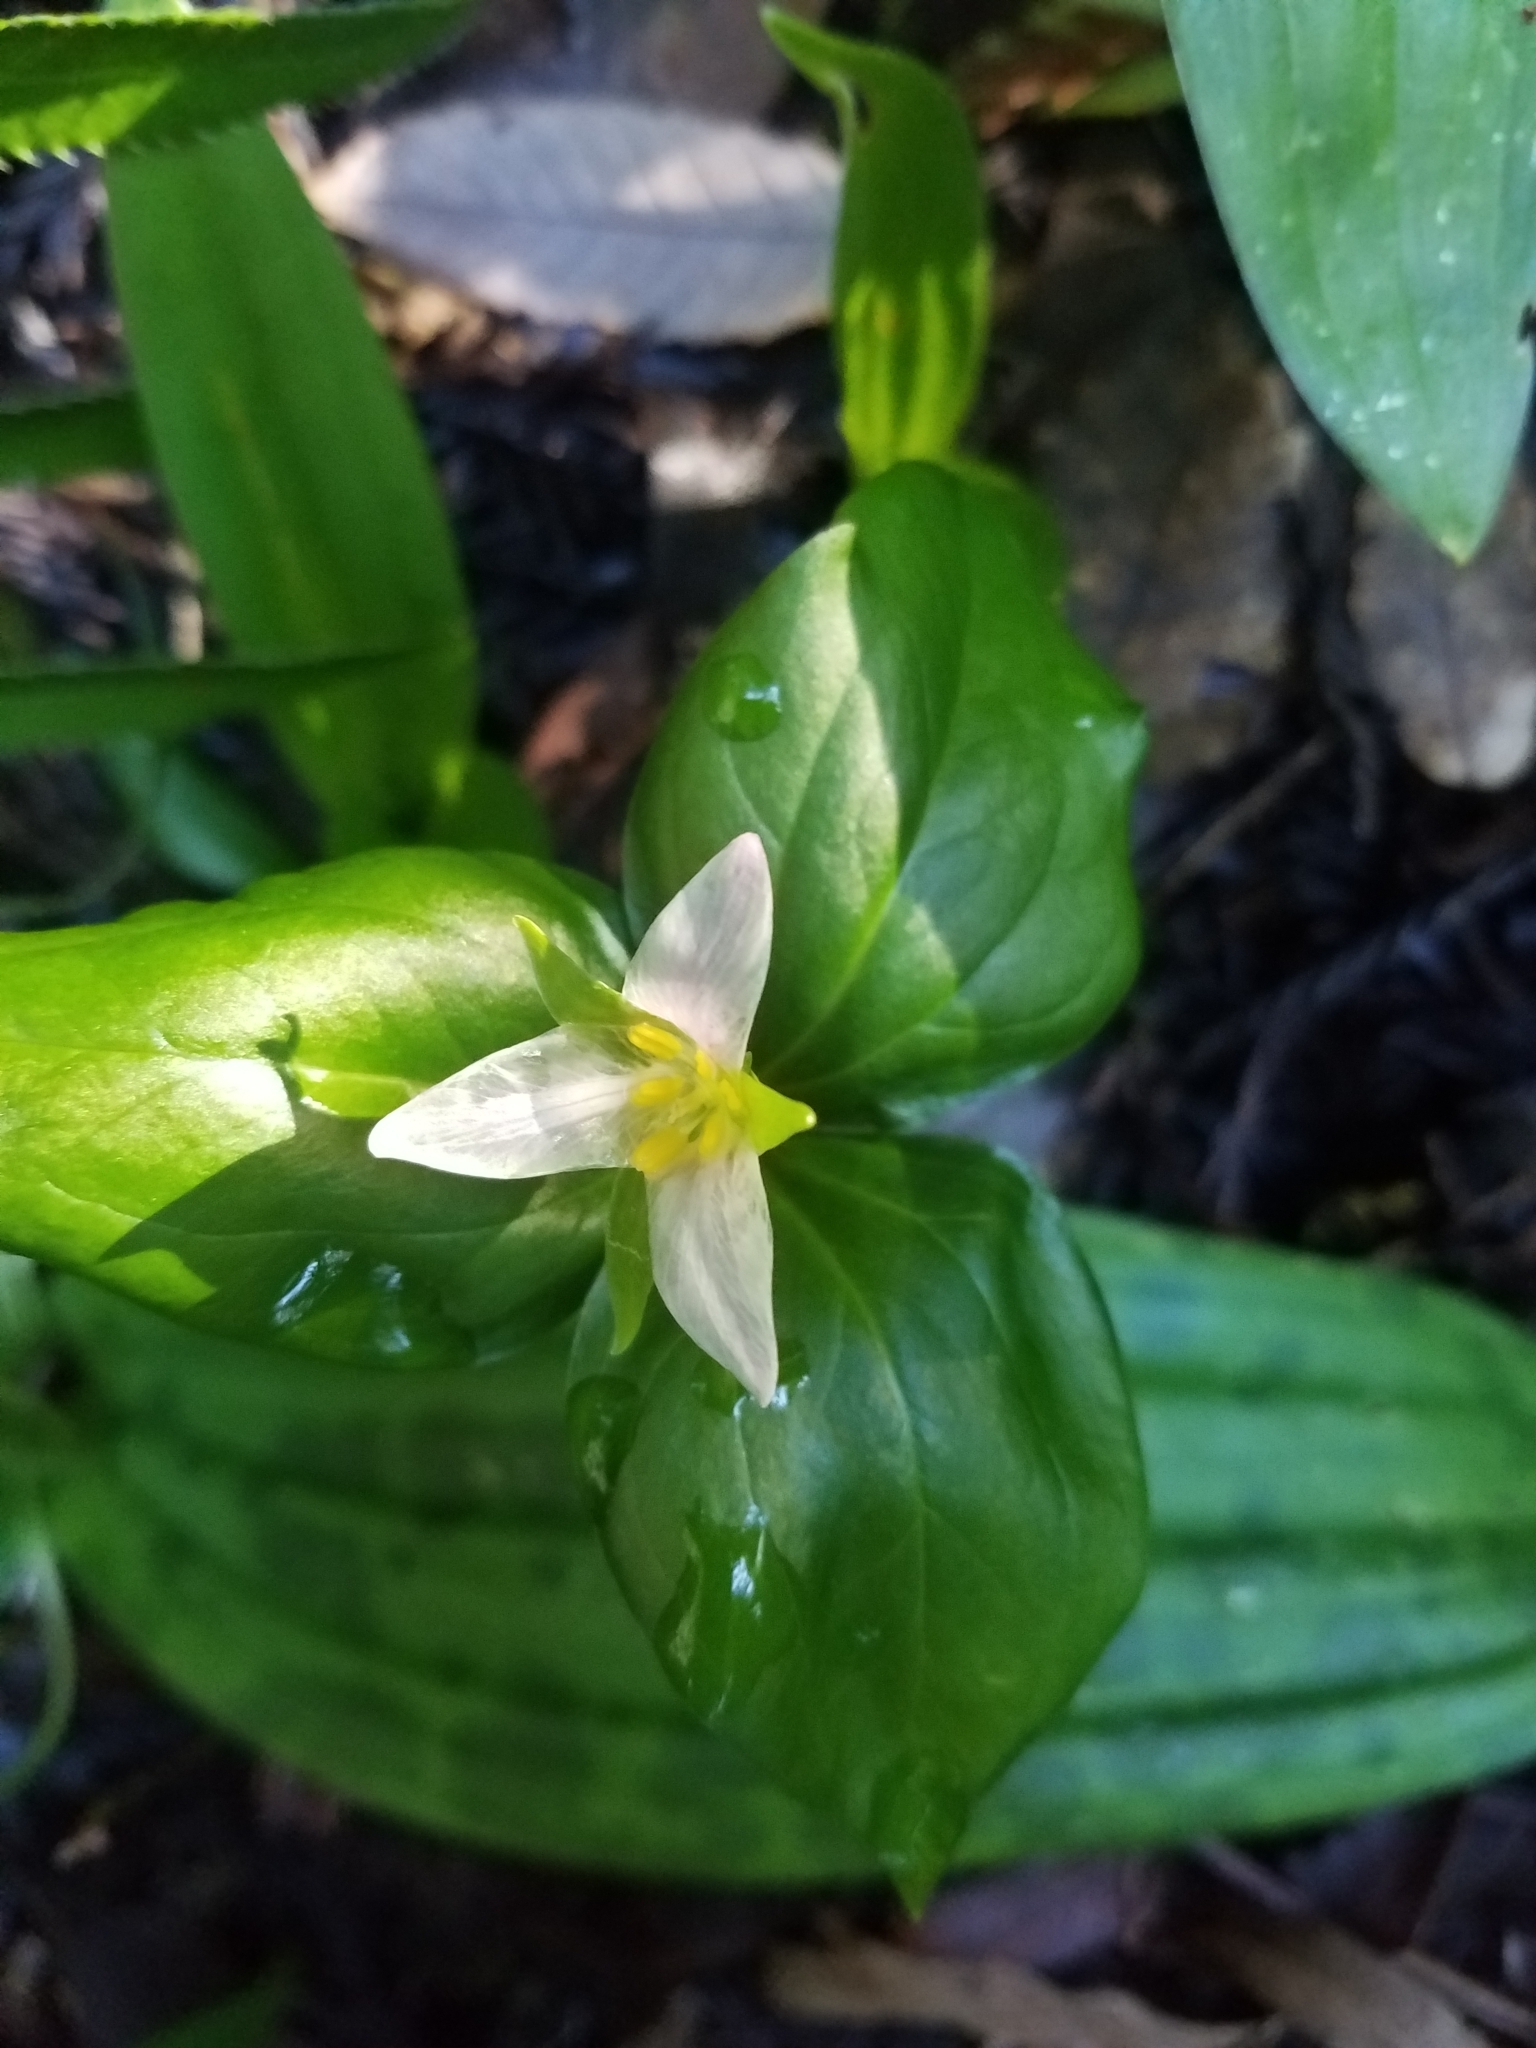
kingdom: Plantae
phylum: Tracheophyta
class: Liliopsida
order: Liliales
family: Melanthiaceae
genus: Trillium
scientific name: Trillium ovatum
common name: Pacific trillium
